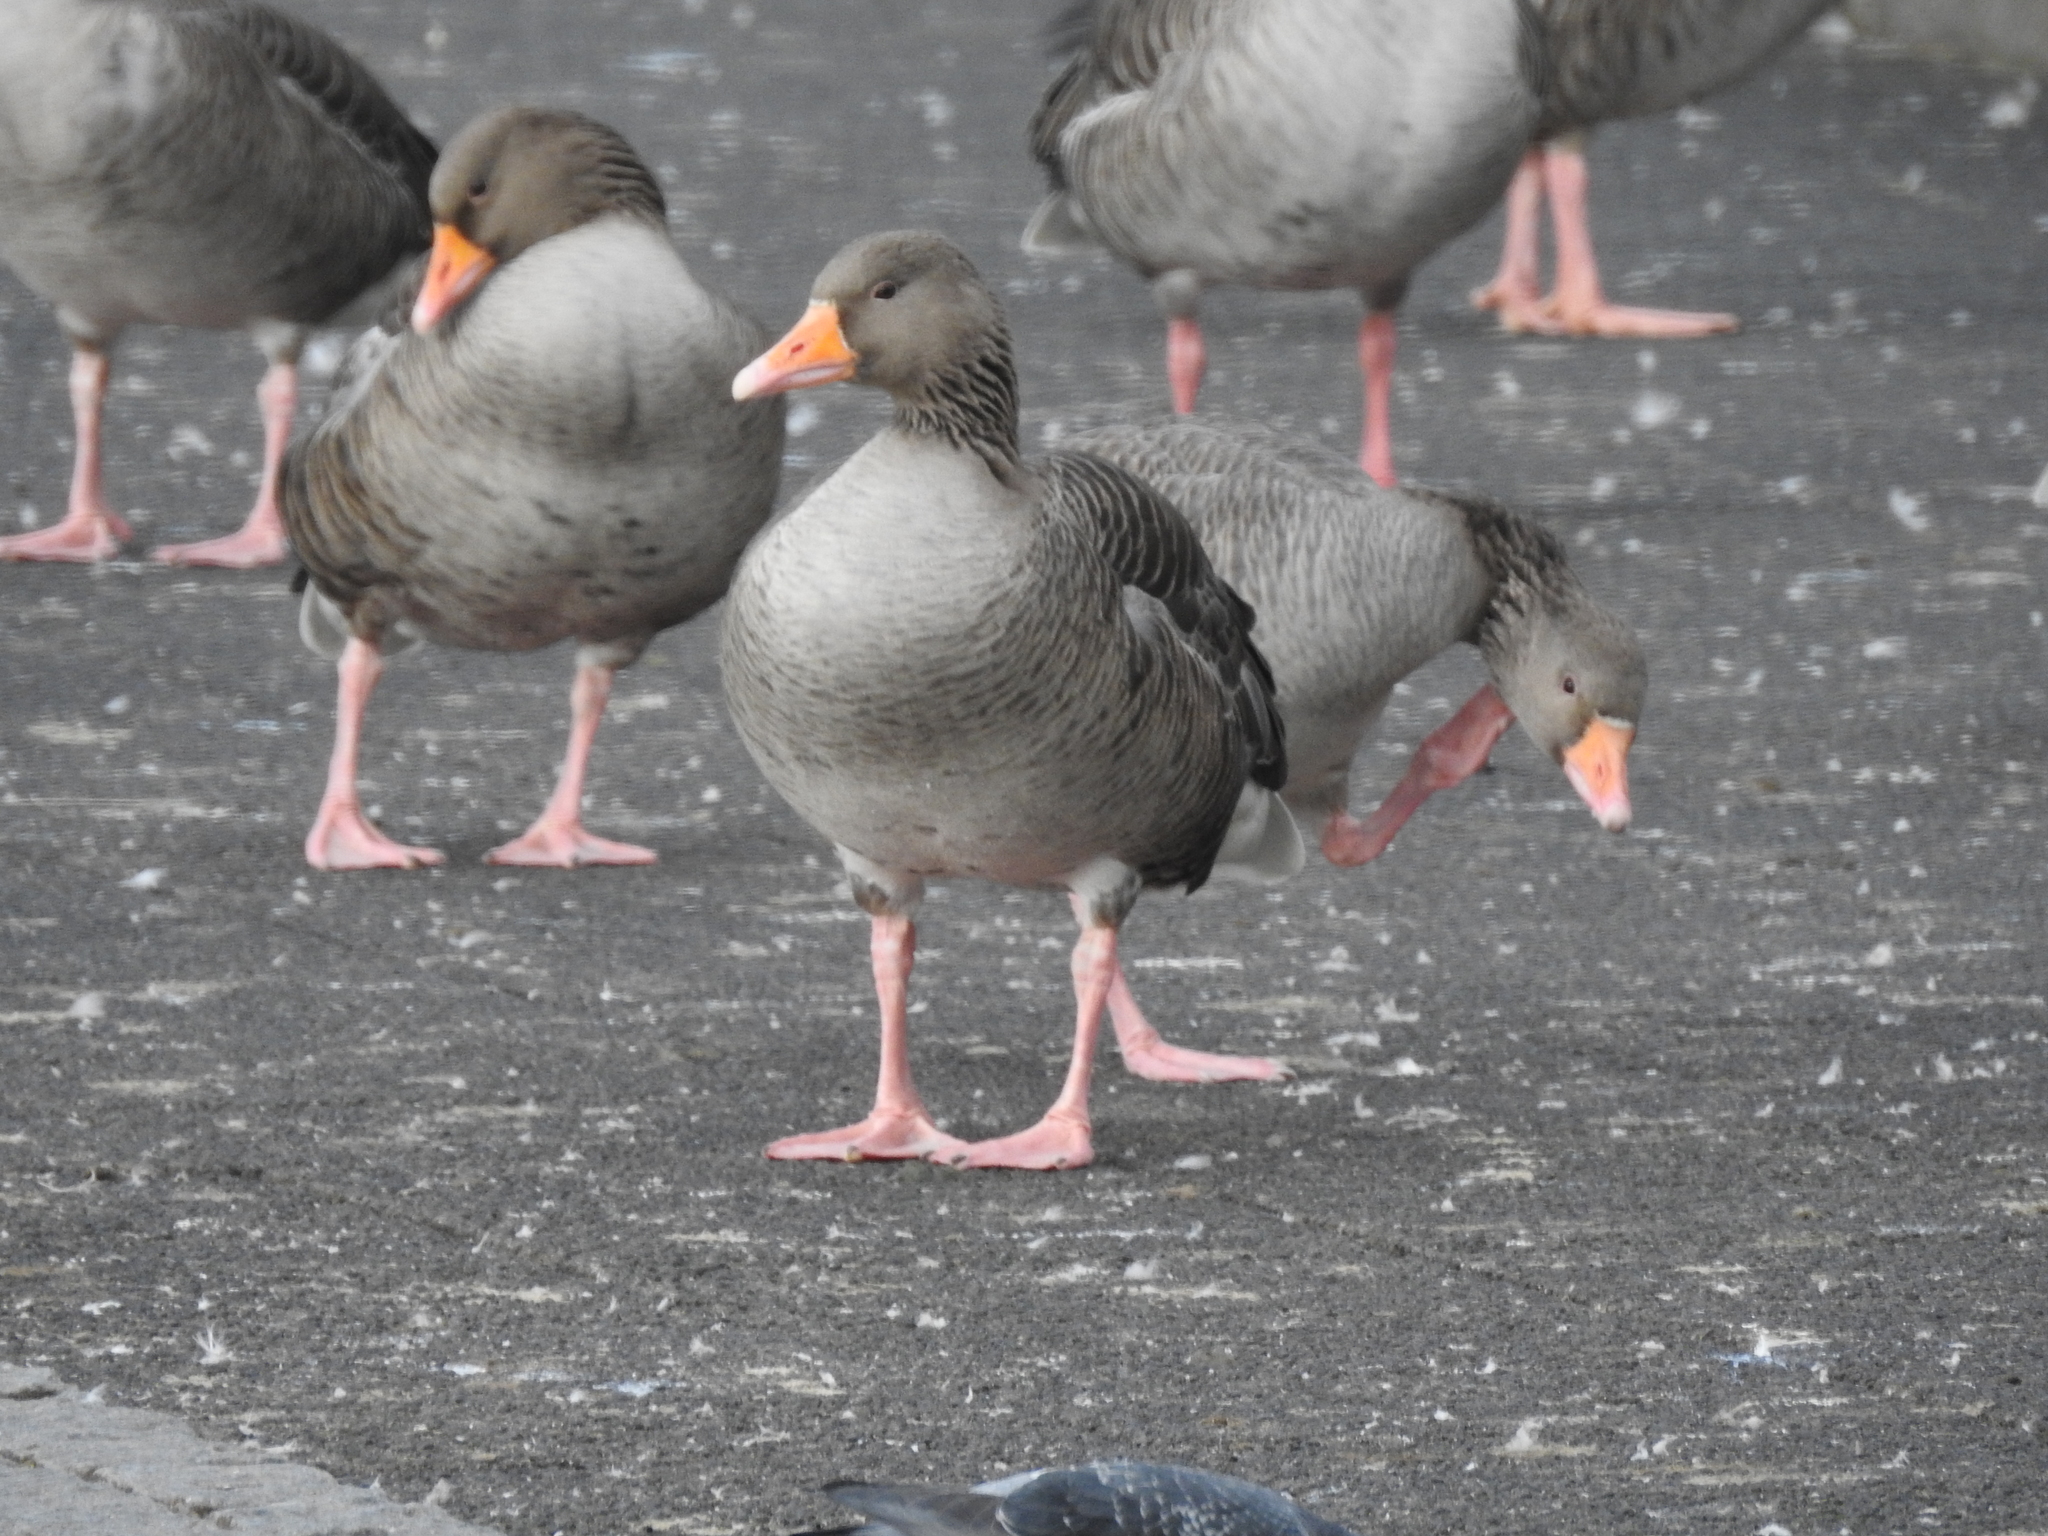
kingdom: Animalia
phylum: Chordata
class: Aves
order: Anseriformes
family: Anatidae
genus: Anser
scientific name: Anser anser
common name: Greylag goose
